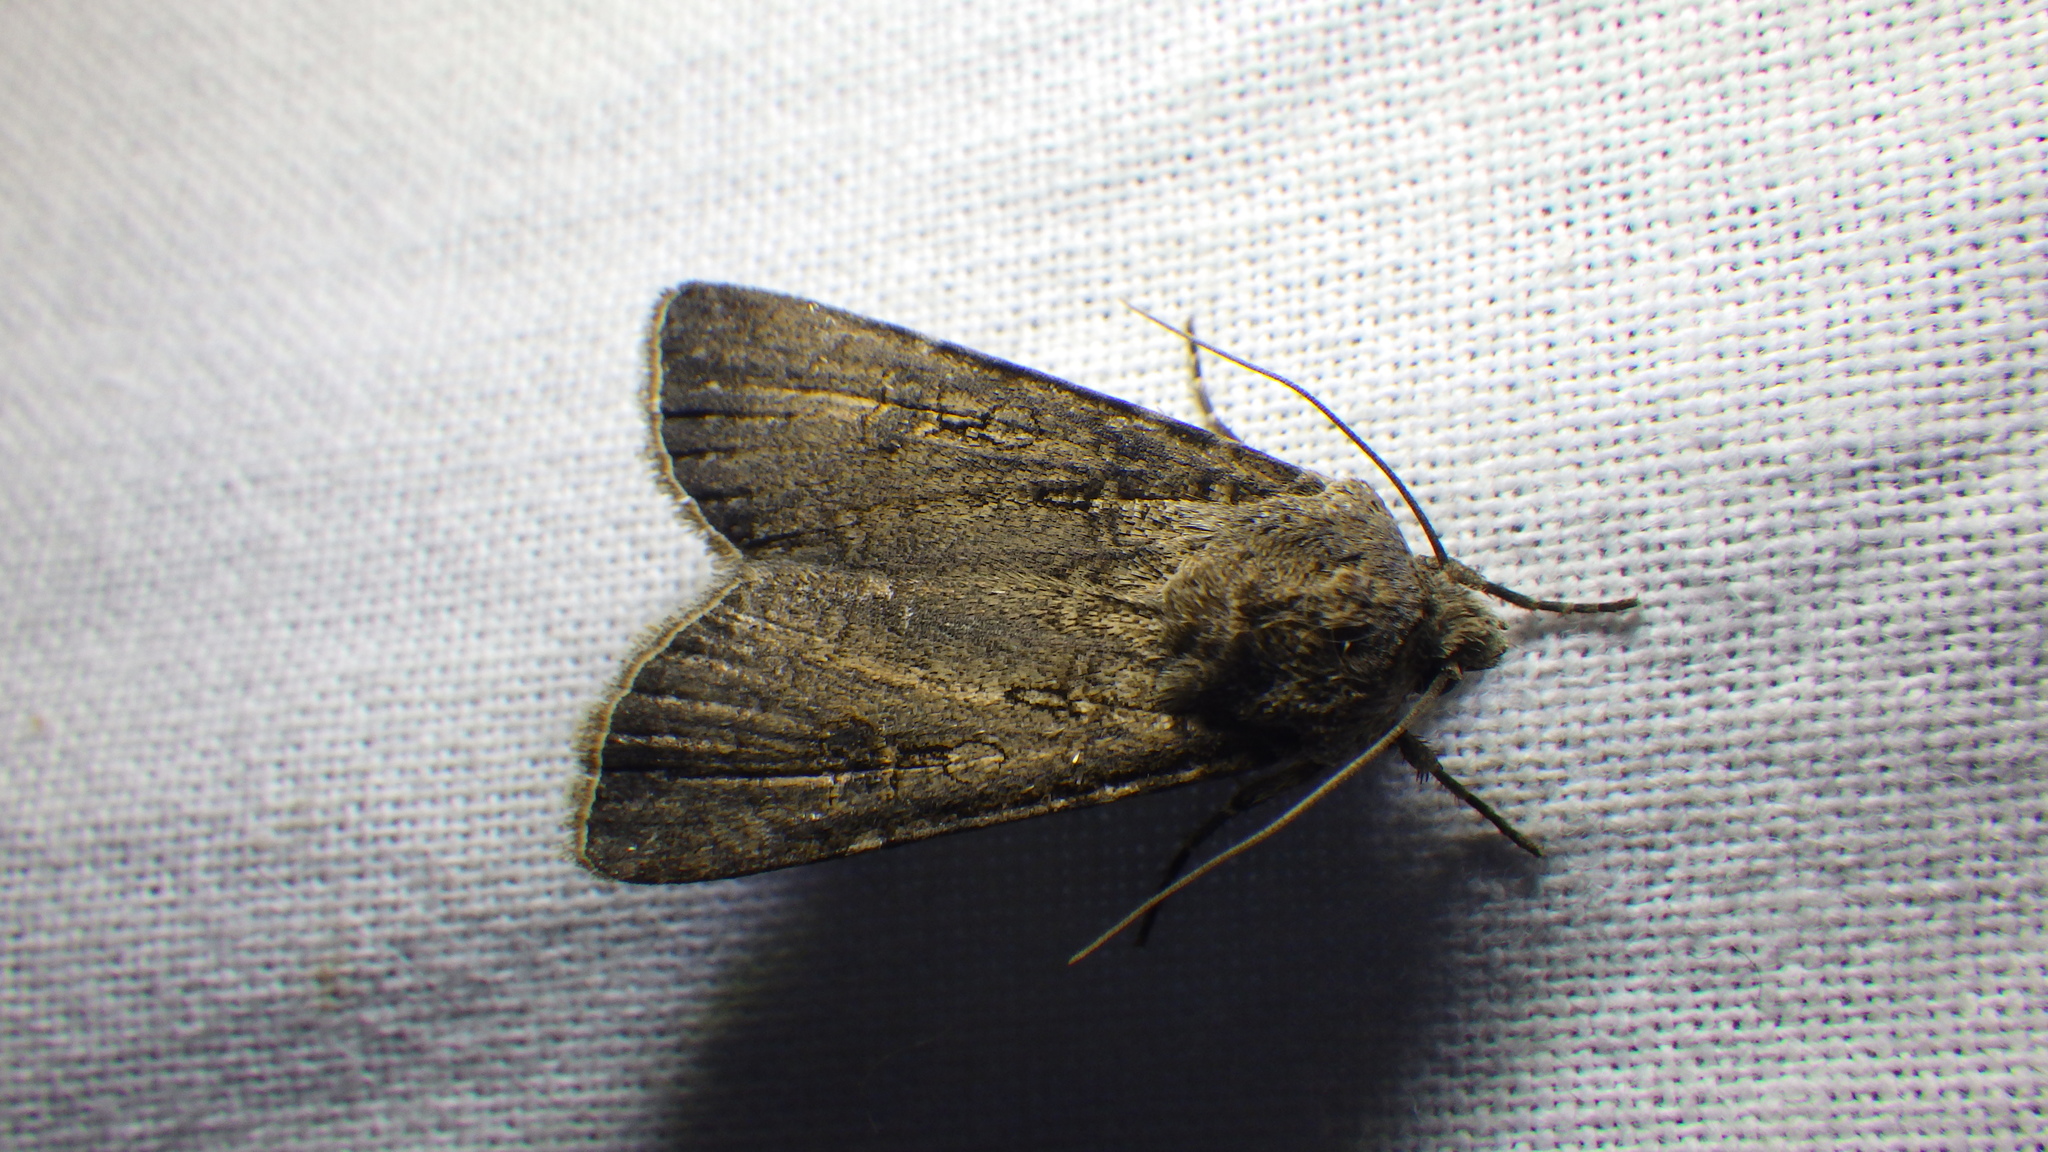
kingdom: Animalia
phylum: Arthropoda
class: Insecta
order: Lepidoptera
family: Noctuidae
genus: Agrotis
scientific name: Agrotis segetum
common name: Turnip moth
